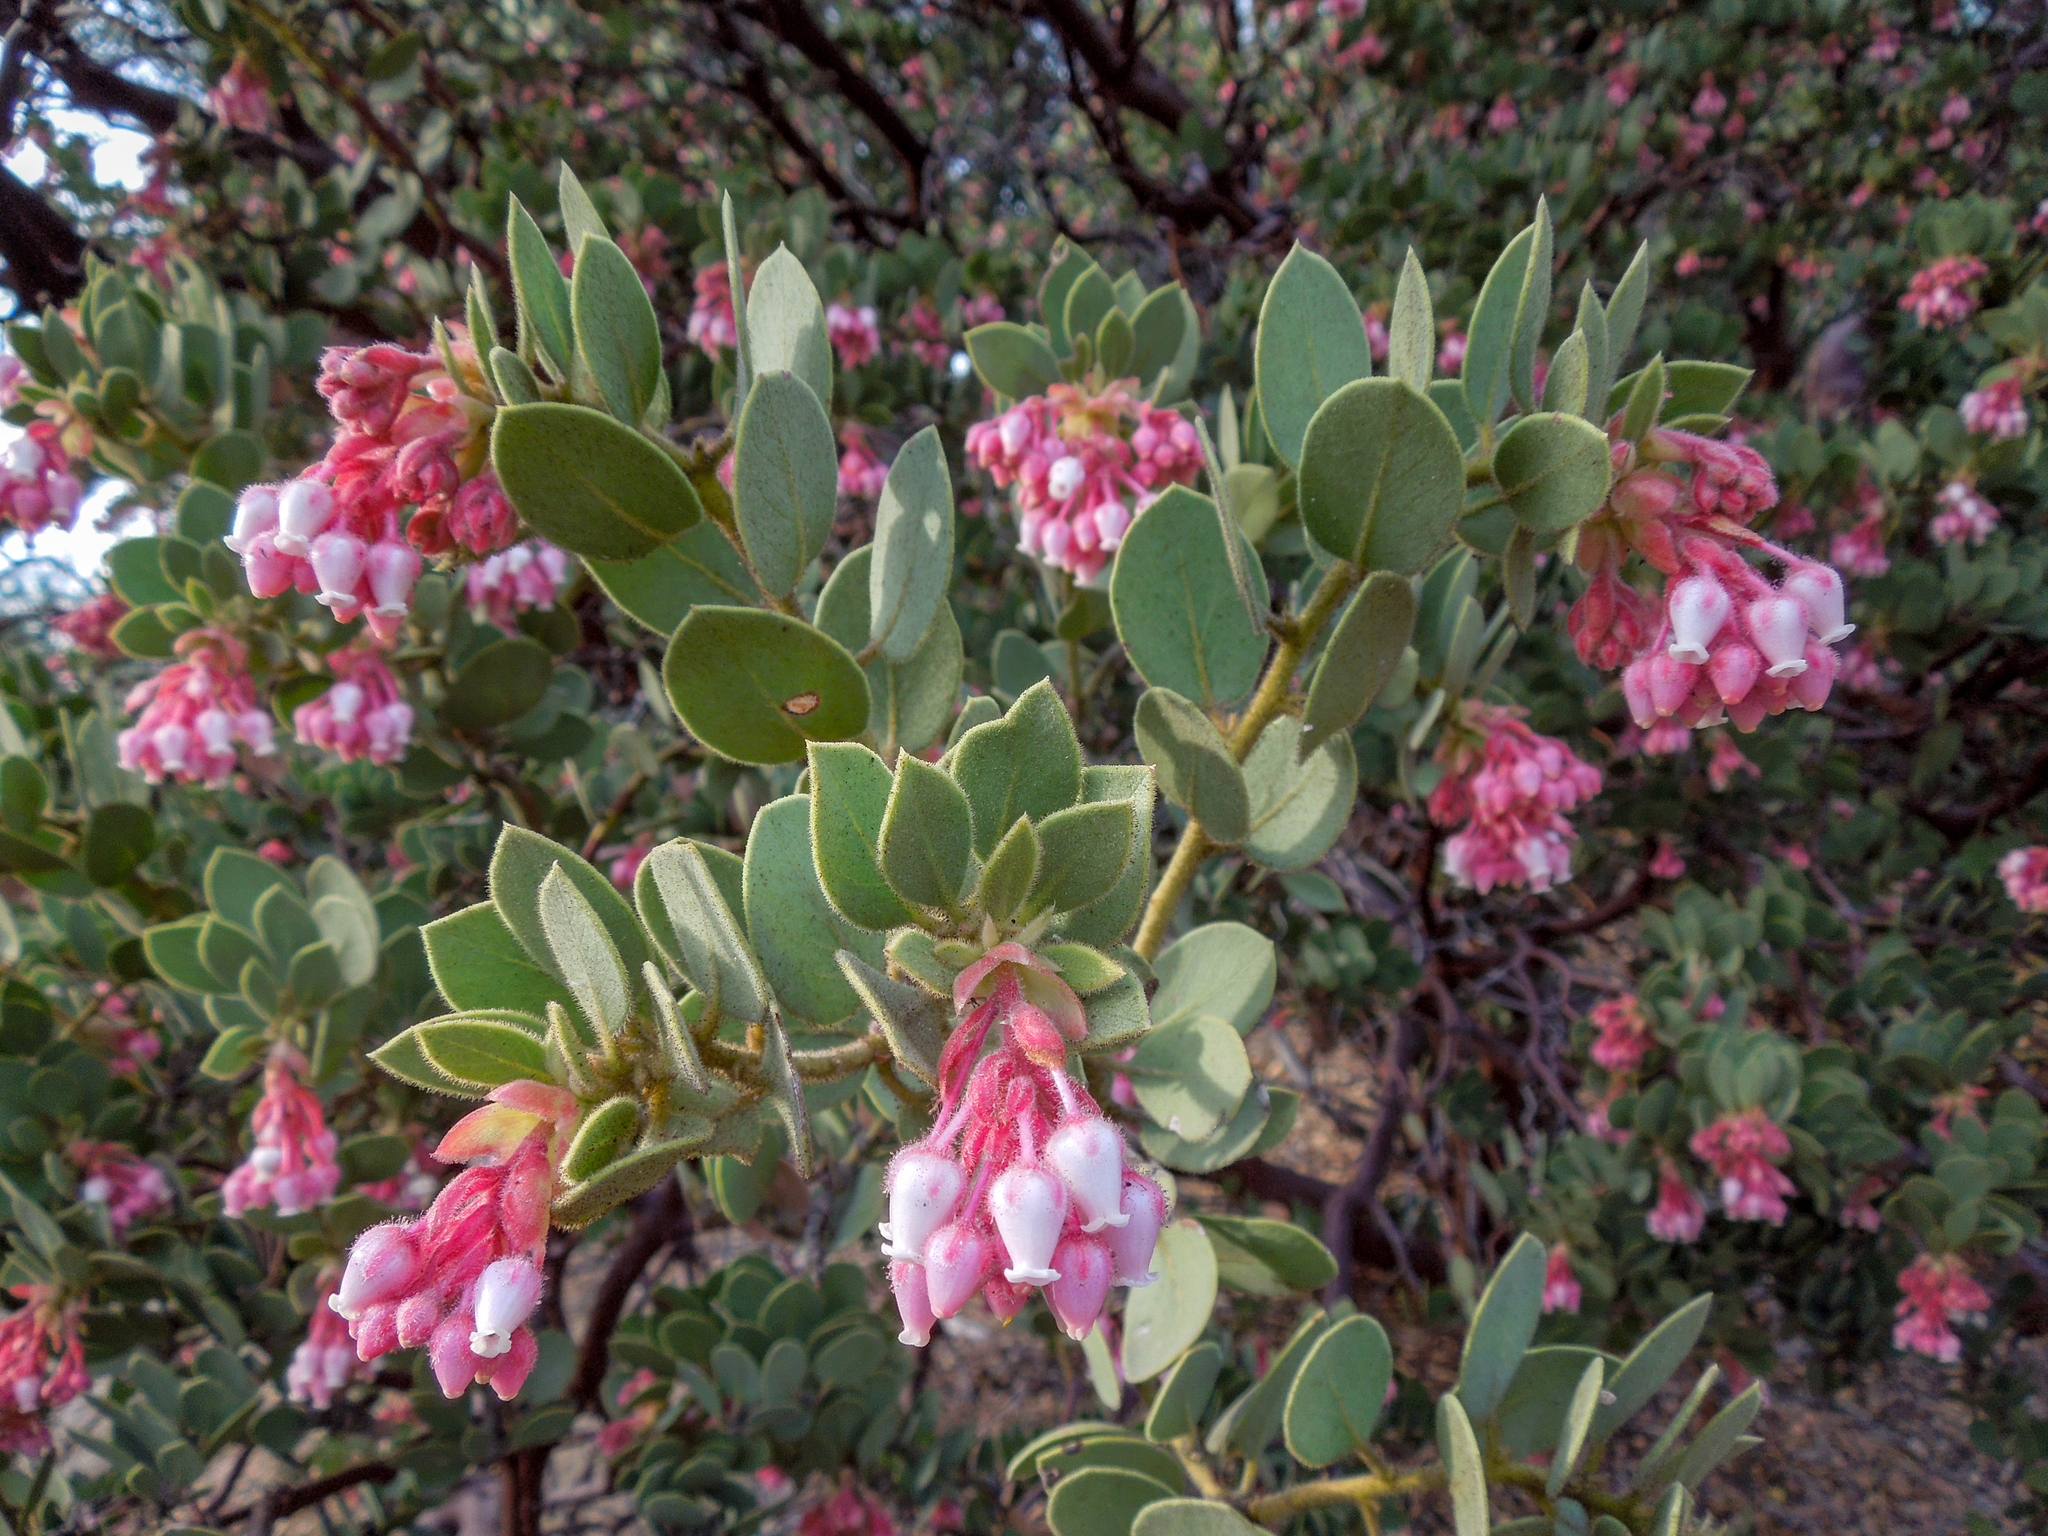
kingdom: Plantae
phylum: Tracheophyta
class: Magnoliopsida
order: Ericales
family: Ericaceae
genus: Arctostaphylos
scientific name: Arctostaphylos pringlei
